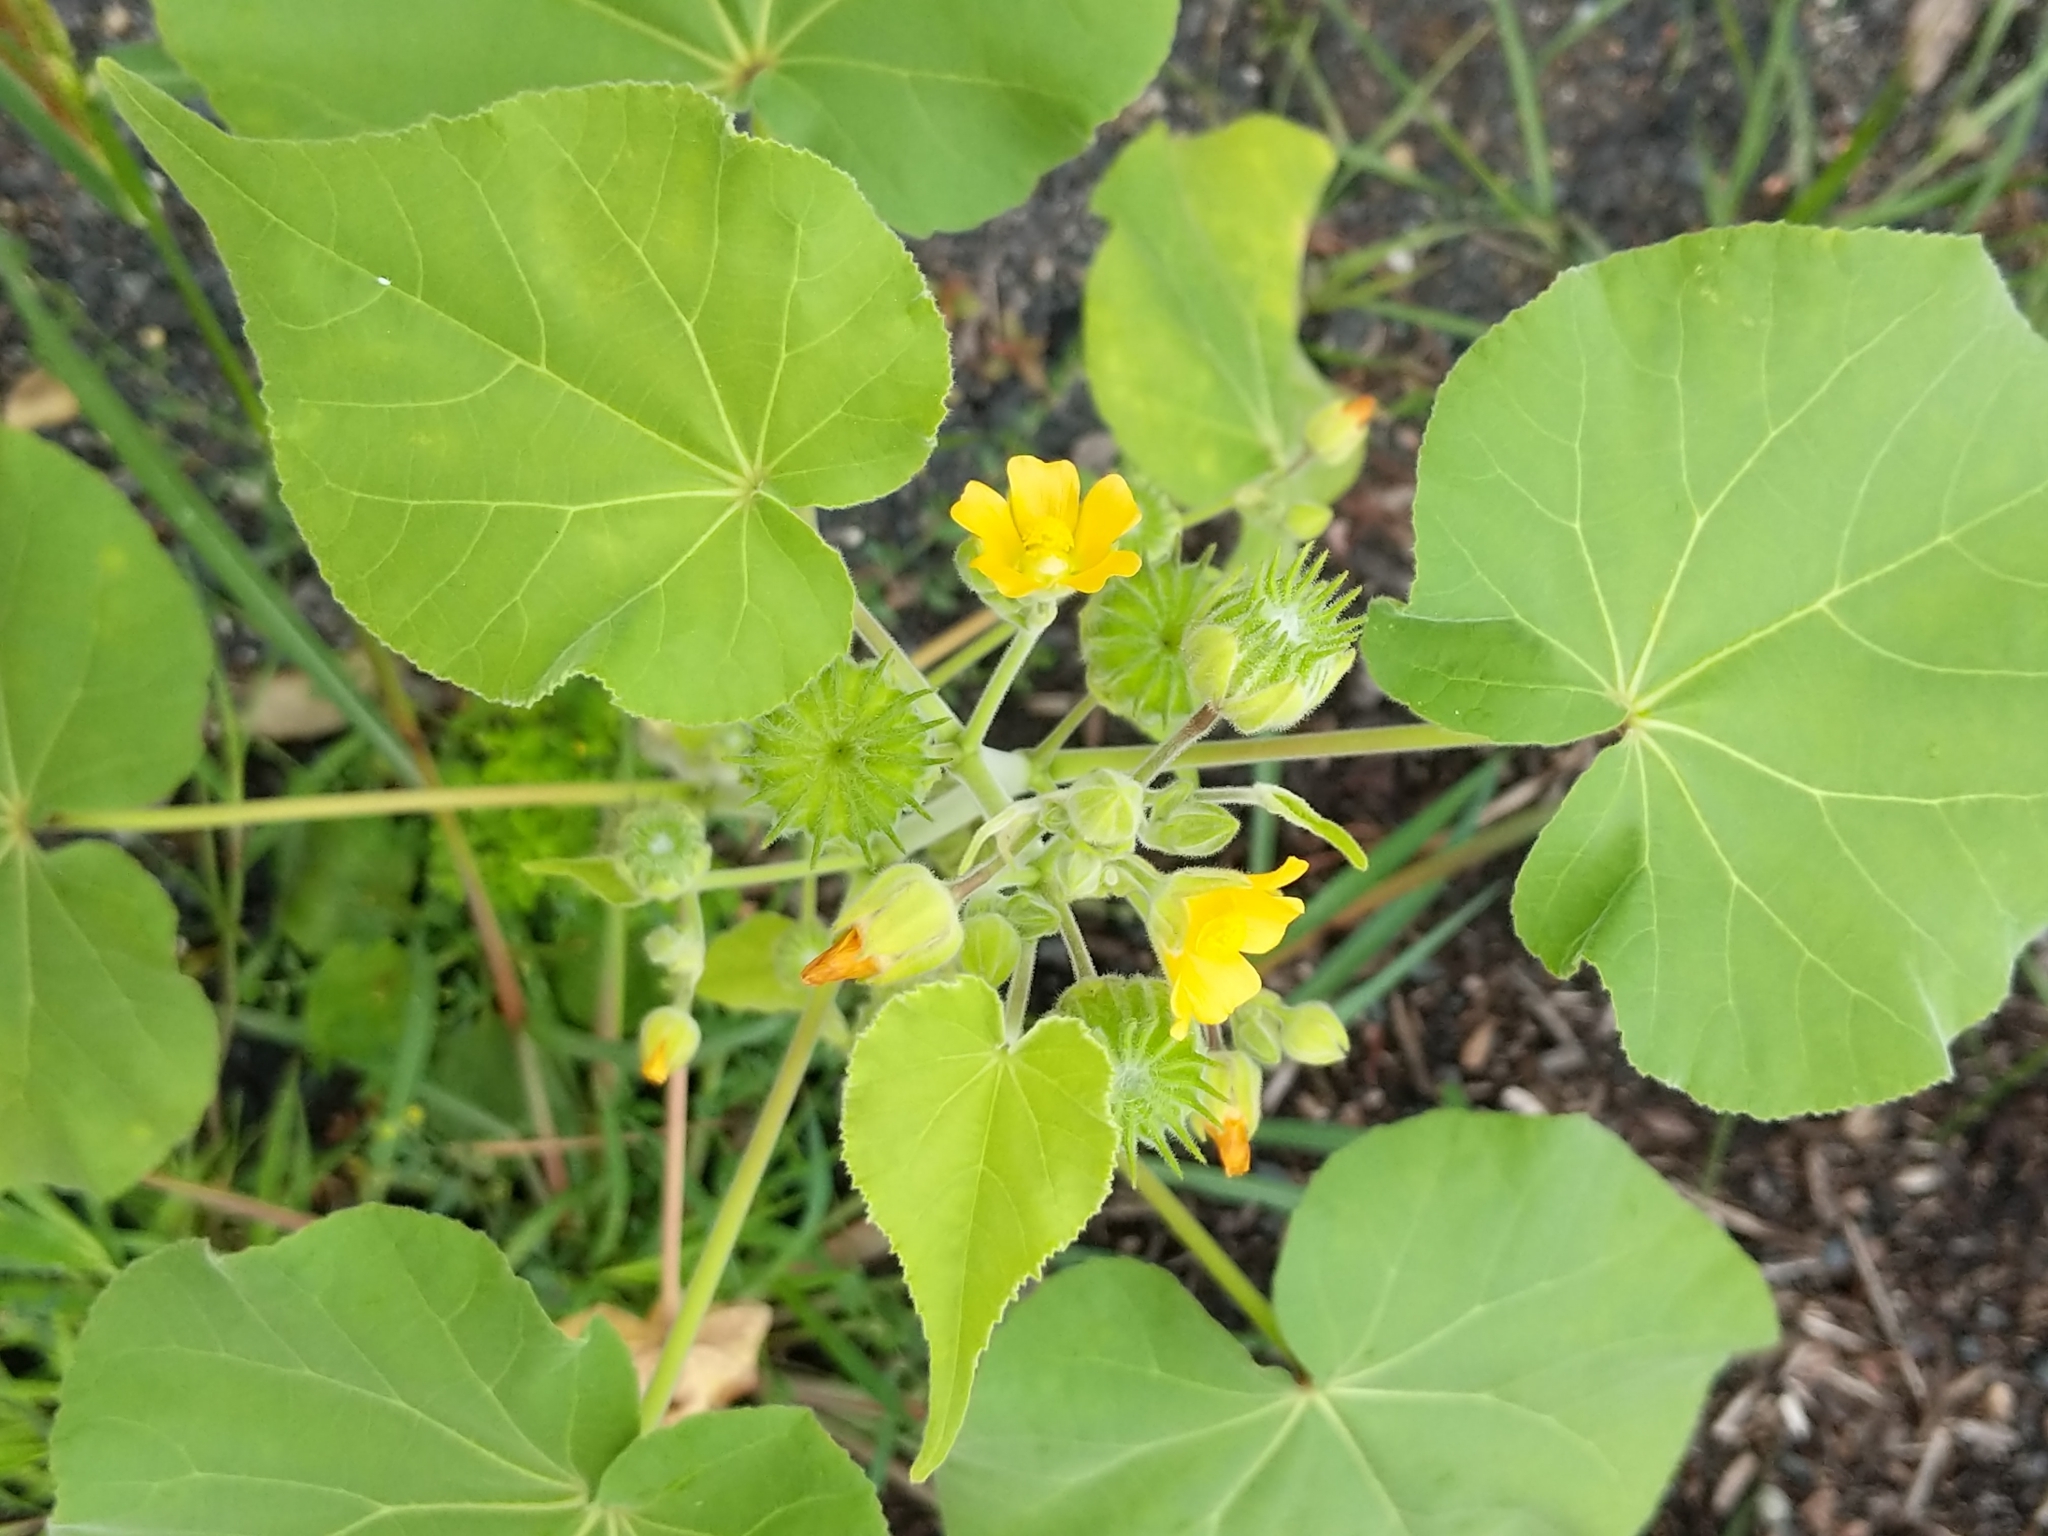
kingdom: Plantae
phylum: Tracheophyta
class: Magnoliopsida
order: Malvales
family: Malvaceae
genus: Abutilon
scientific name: Abutilon theophrasti
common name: Velvetleaf
